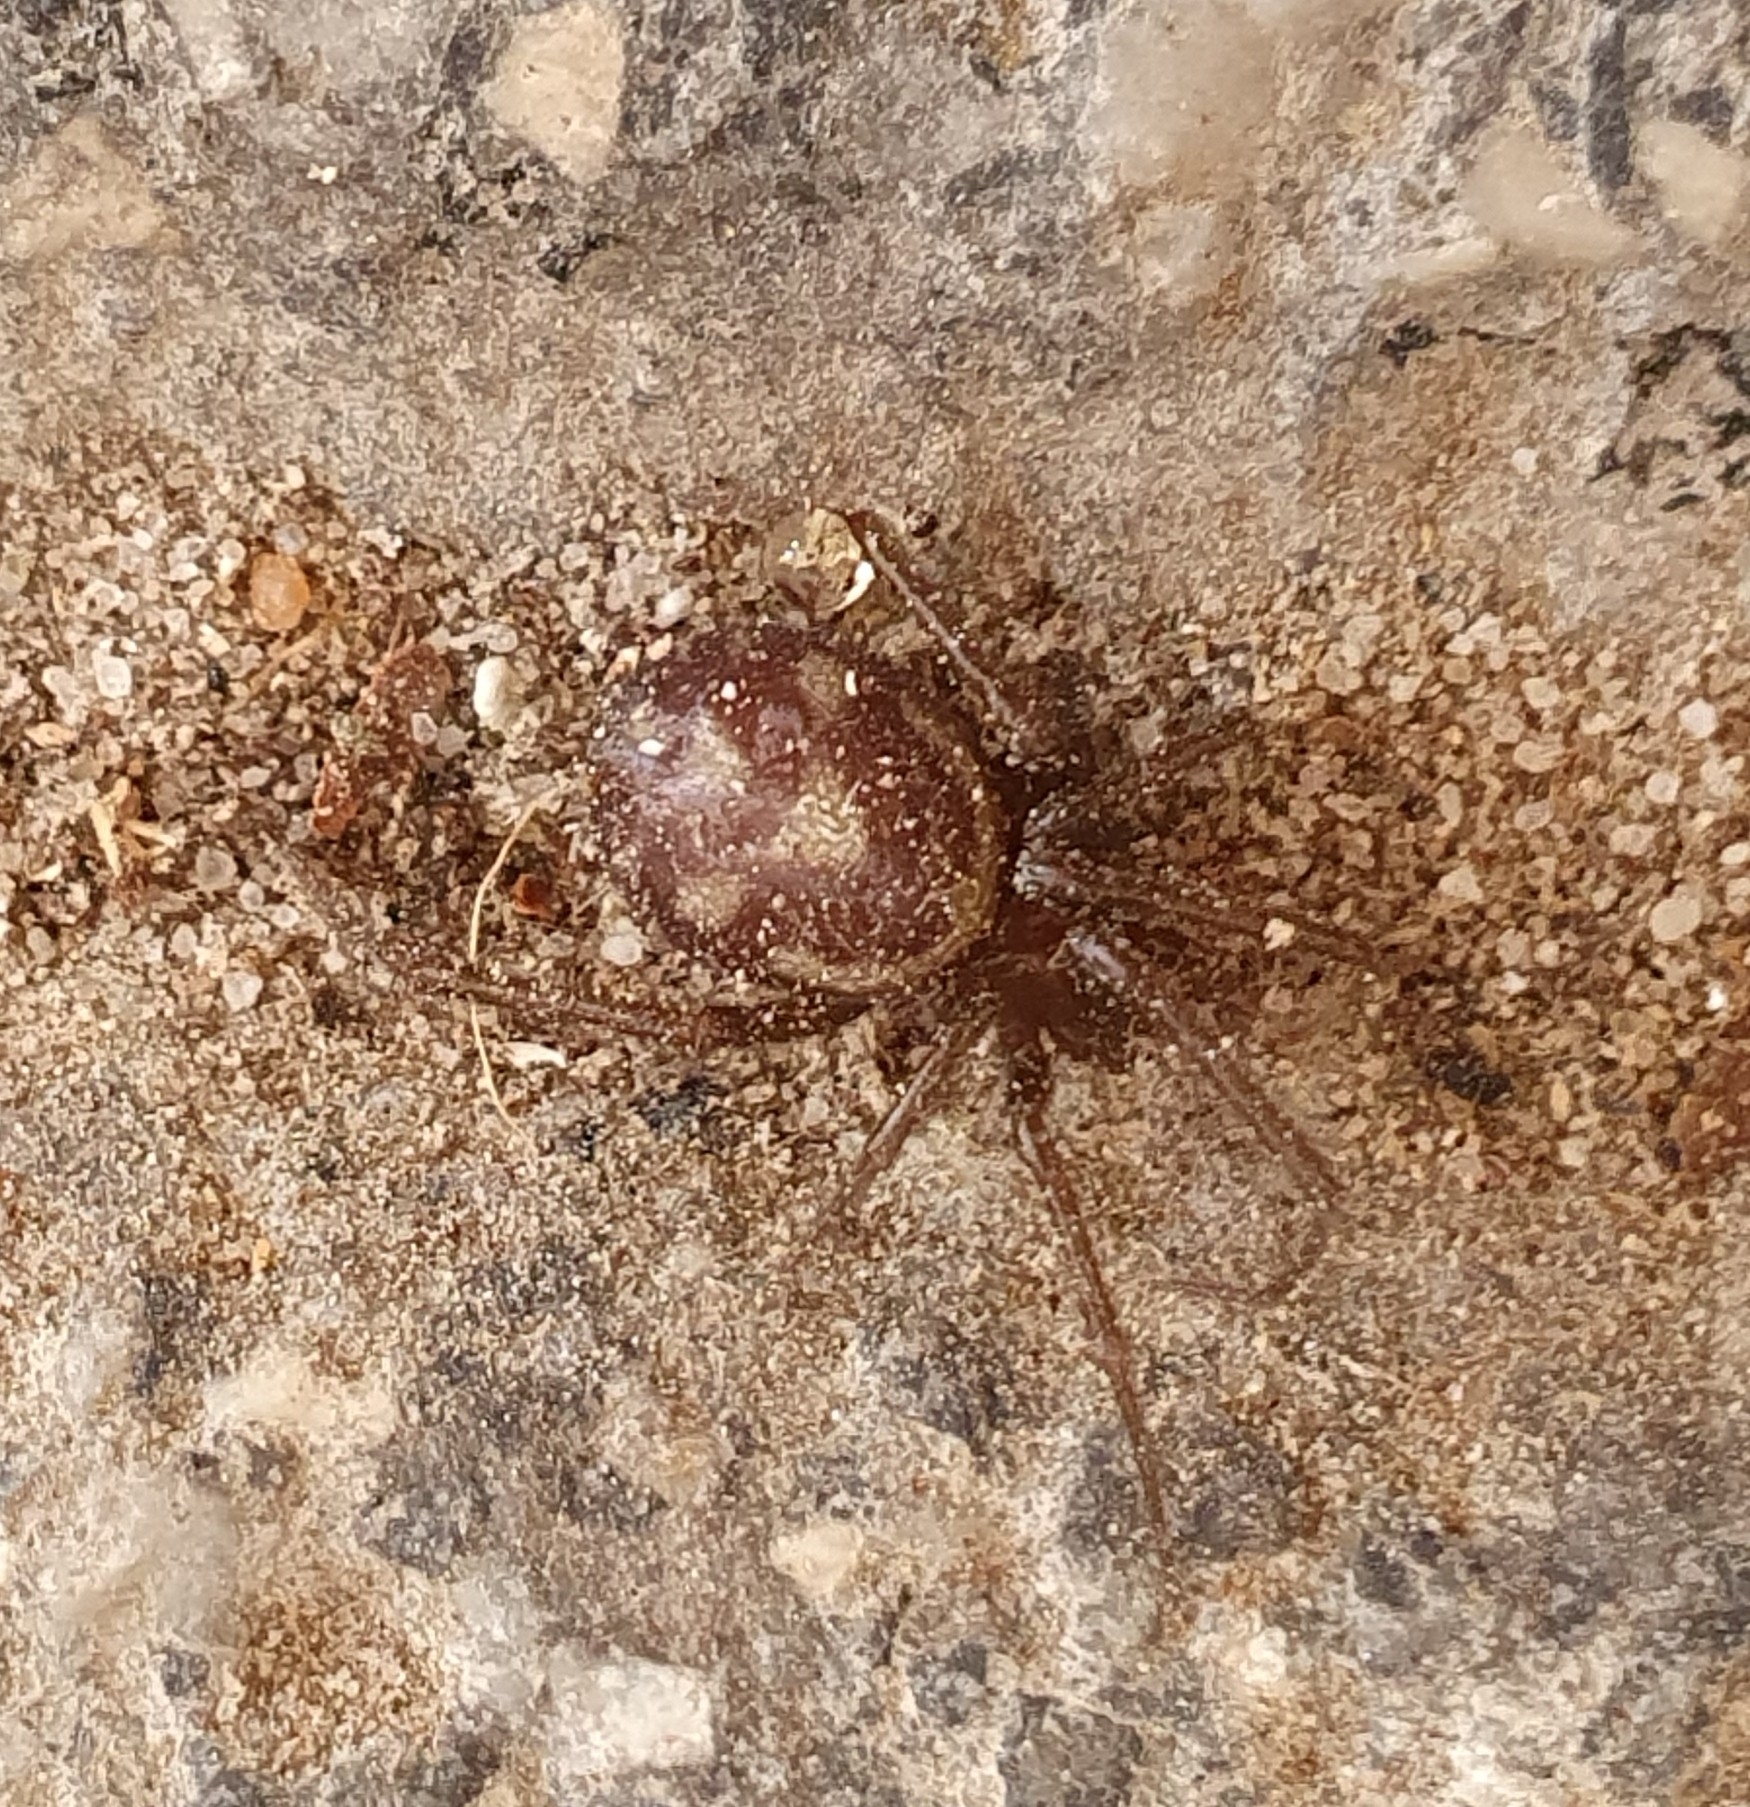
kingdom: Animalia
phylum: Arthropoda
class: Arachnida
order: Araneae
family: Theridiidae
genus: Steatoda
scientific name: Steatoda grossa
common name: False black widow
